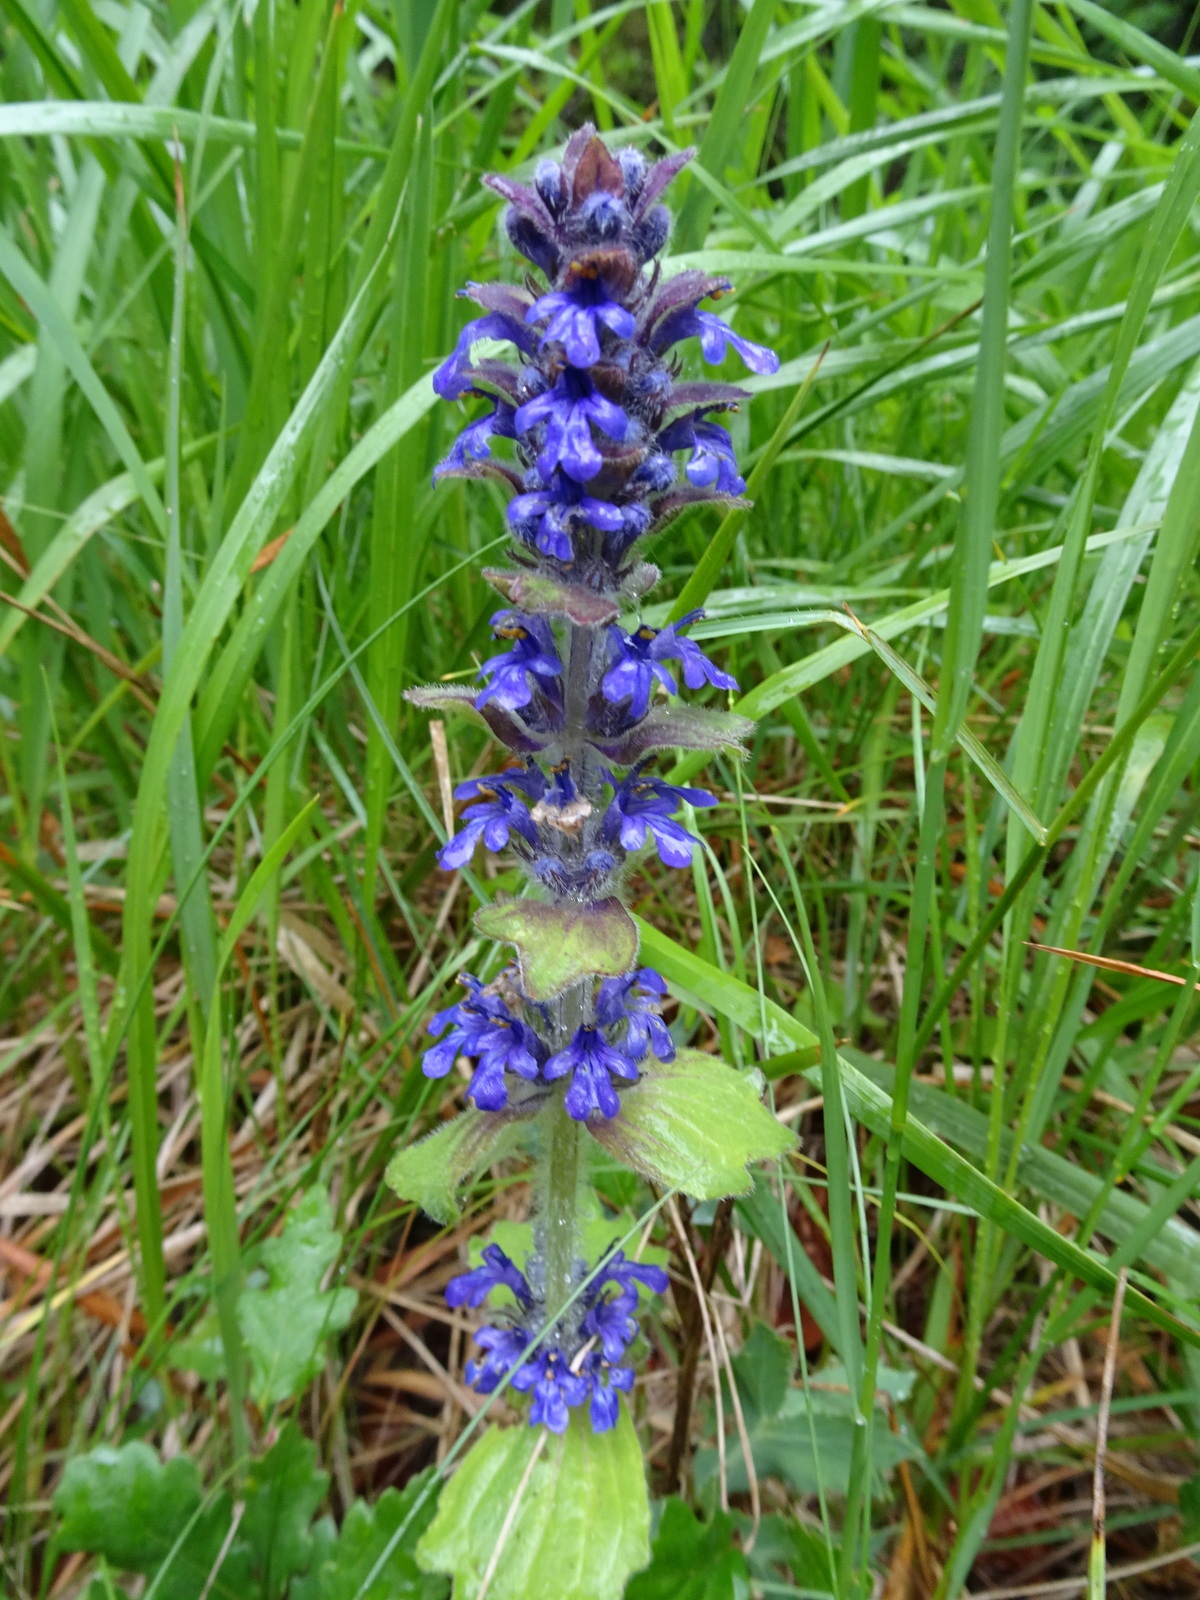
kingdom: Plantae
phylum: Tracheophyta
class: Magnoliopsida
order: Lamiales
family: Lamiaceae
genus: Ajuga
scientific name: Ajuga genevensis
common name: Blue bugle
